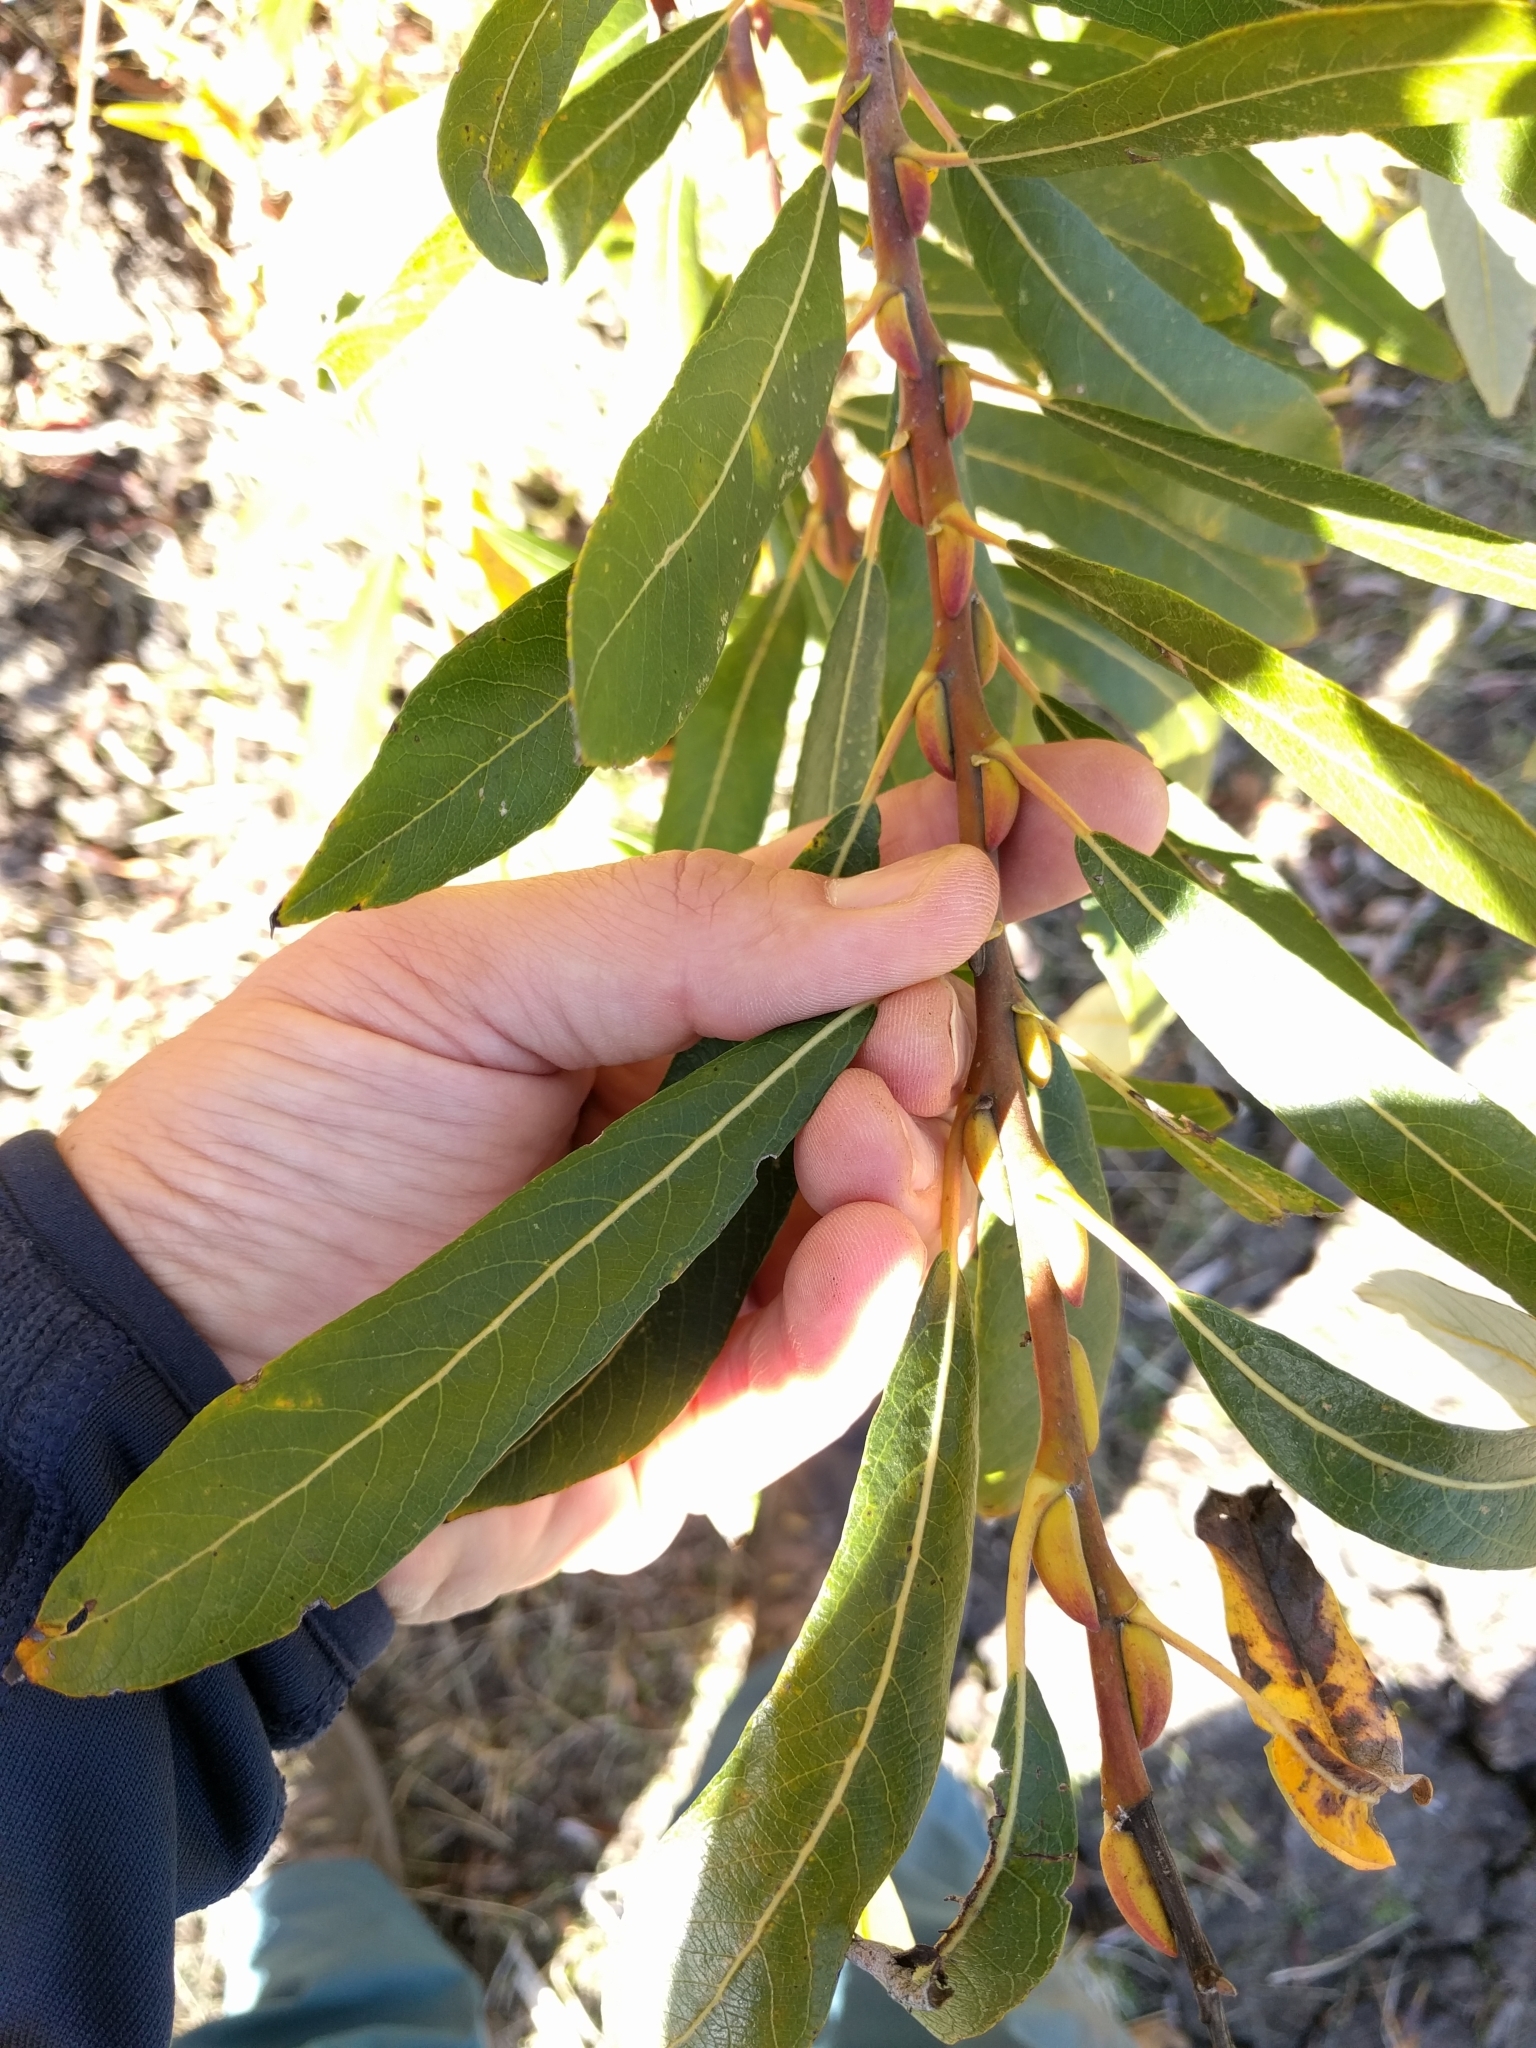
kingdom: Plantae
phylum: Tracheophyta
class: Magnoliopsida
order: Malpighiales
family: Salicaceae
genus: Salix
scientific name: Salix lasiolepis
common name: Arroyo willow
